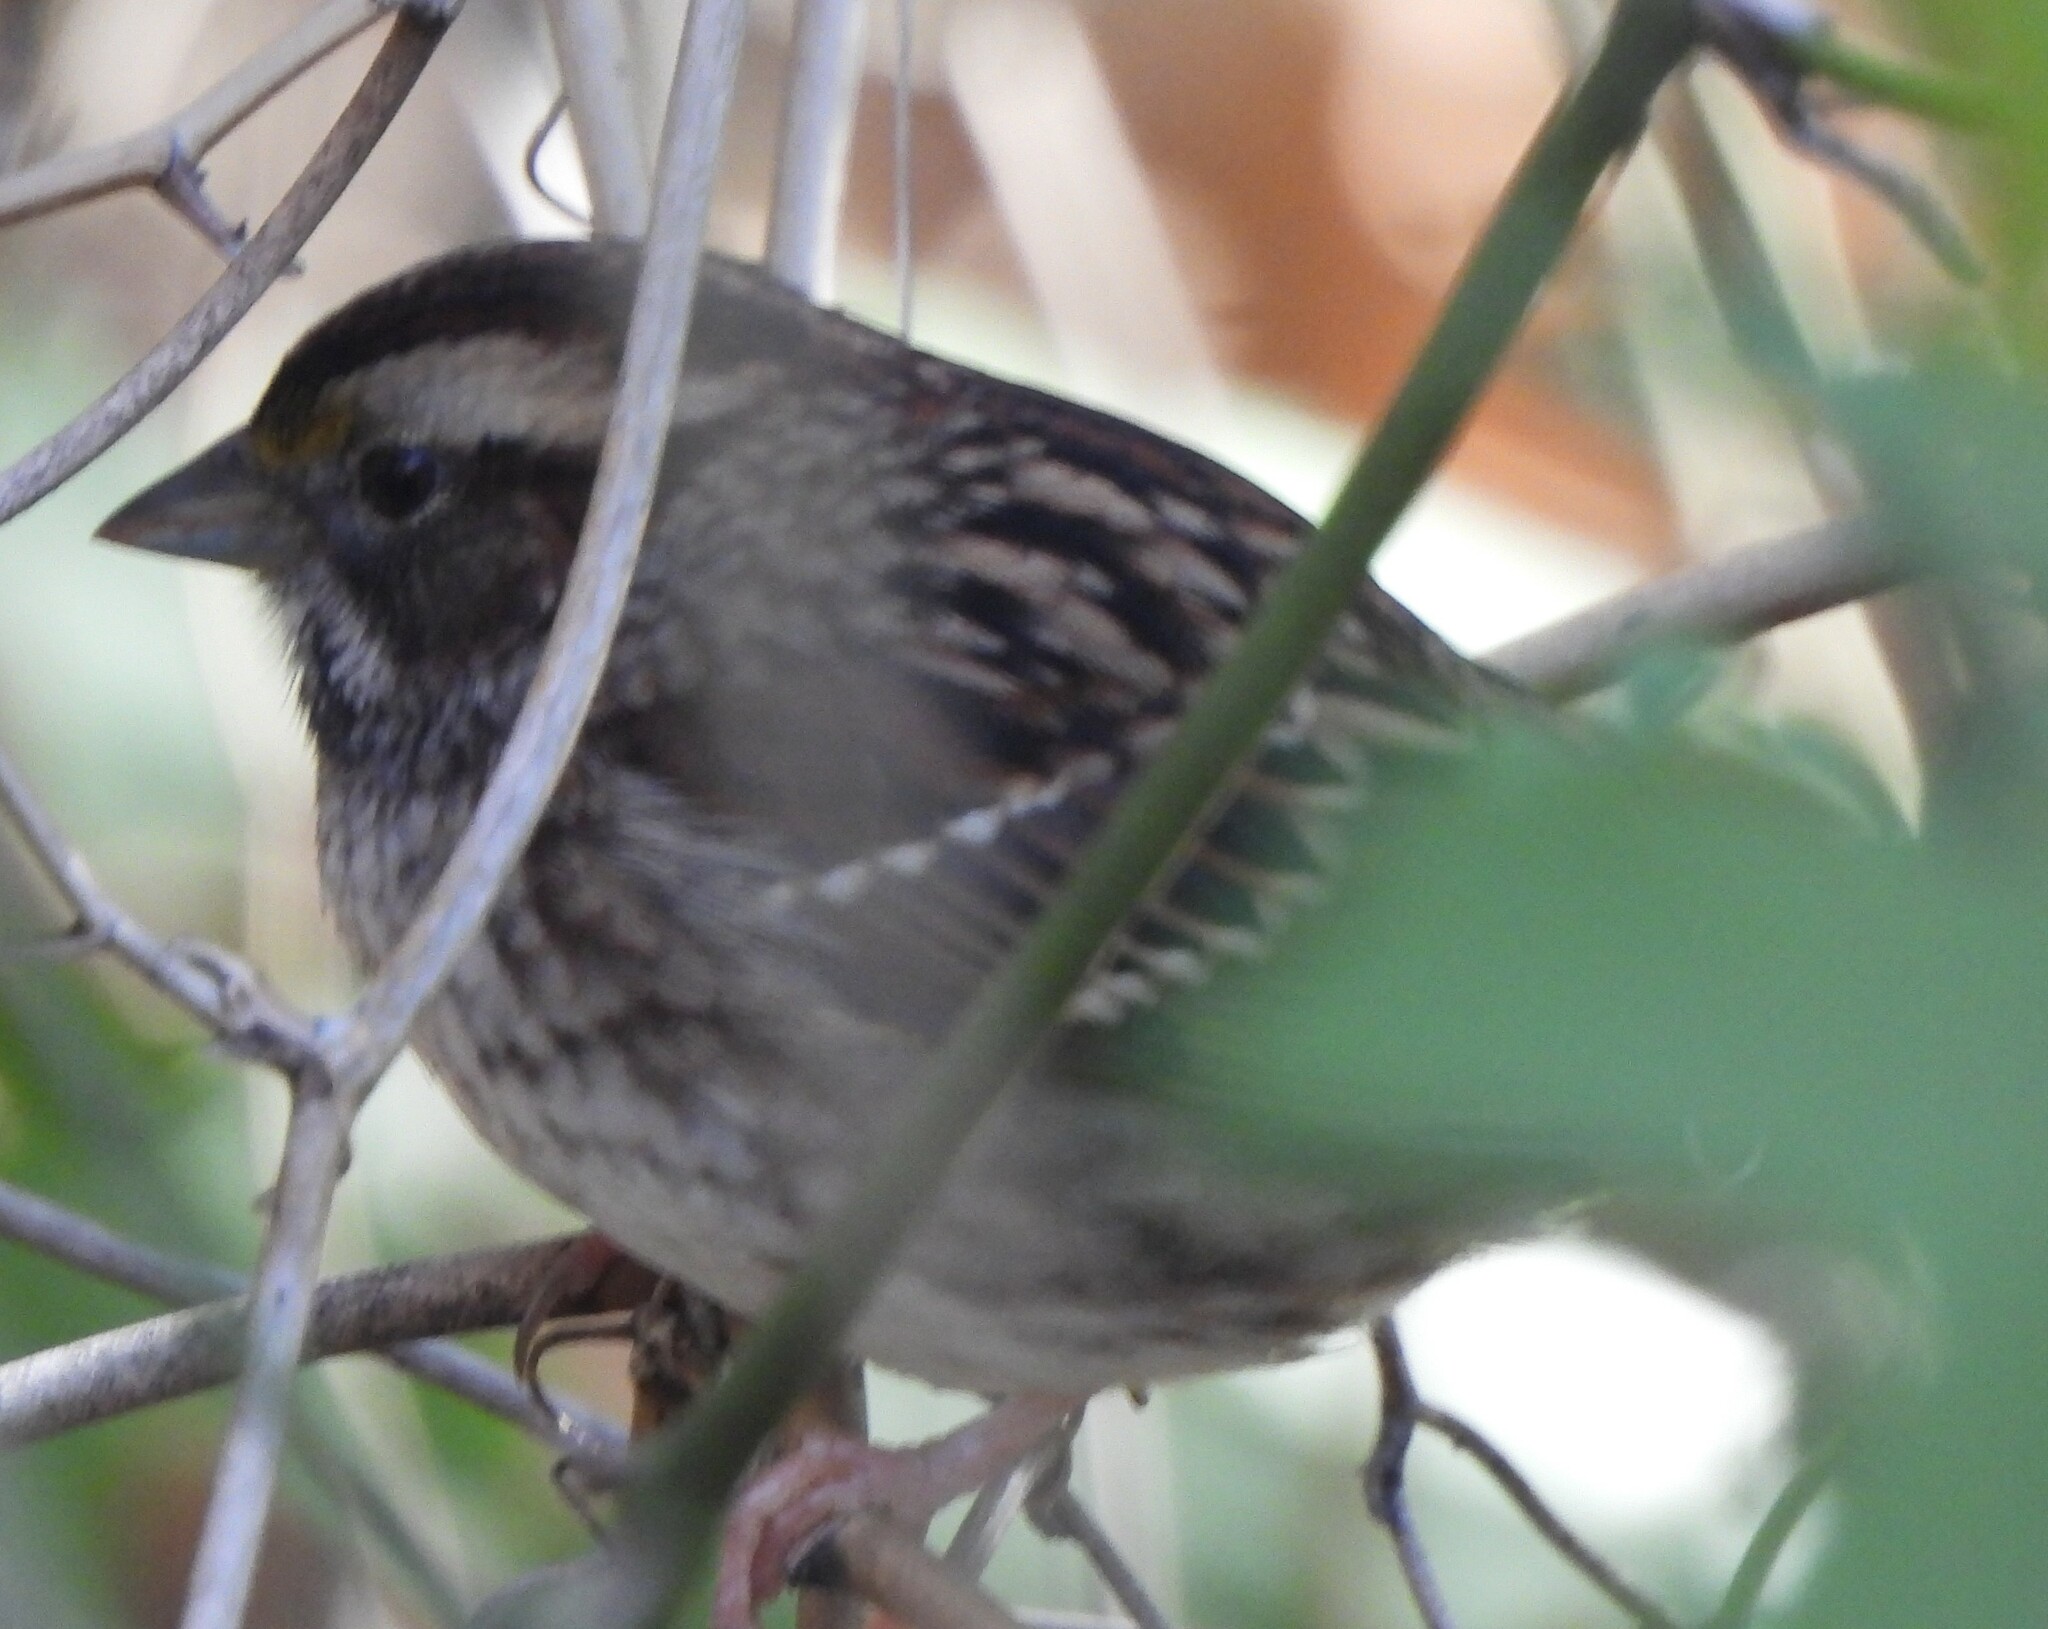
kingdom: Animalia
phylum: Chordata
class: Aves
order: Passeriformes
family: Passerellidae
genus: Zonotrichia
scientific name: Zonotrichia albicollis
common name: White-throated sparrow
